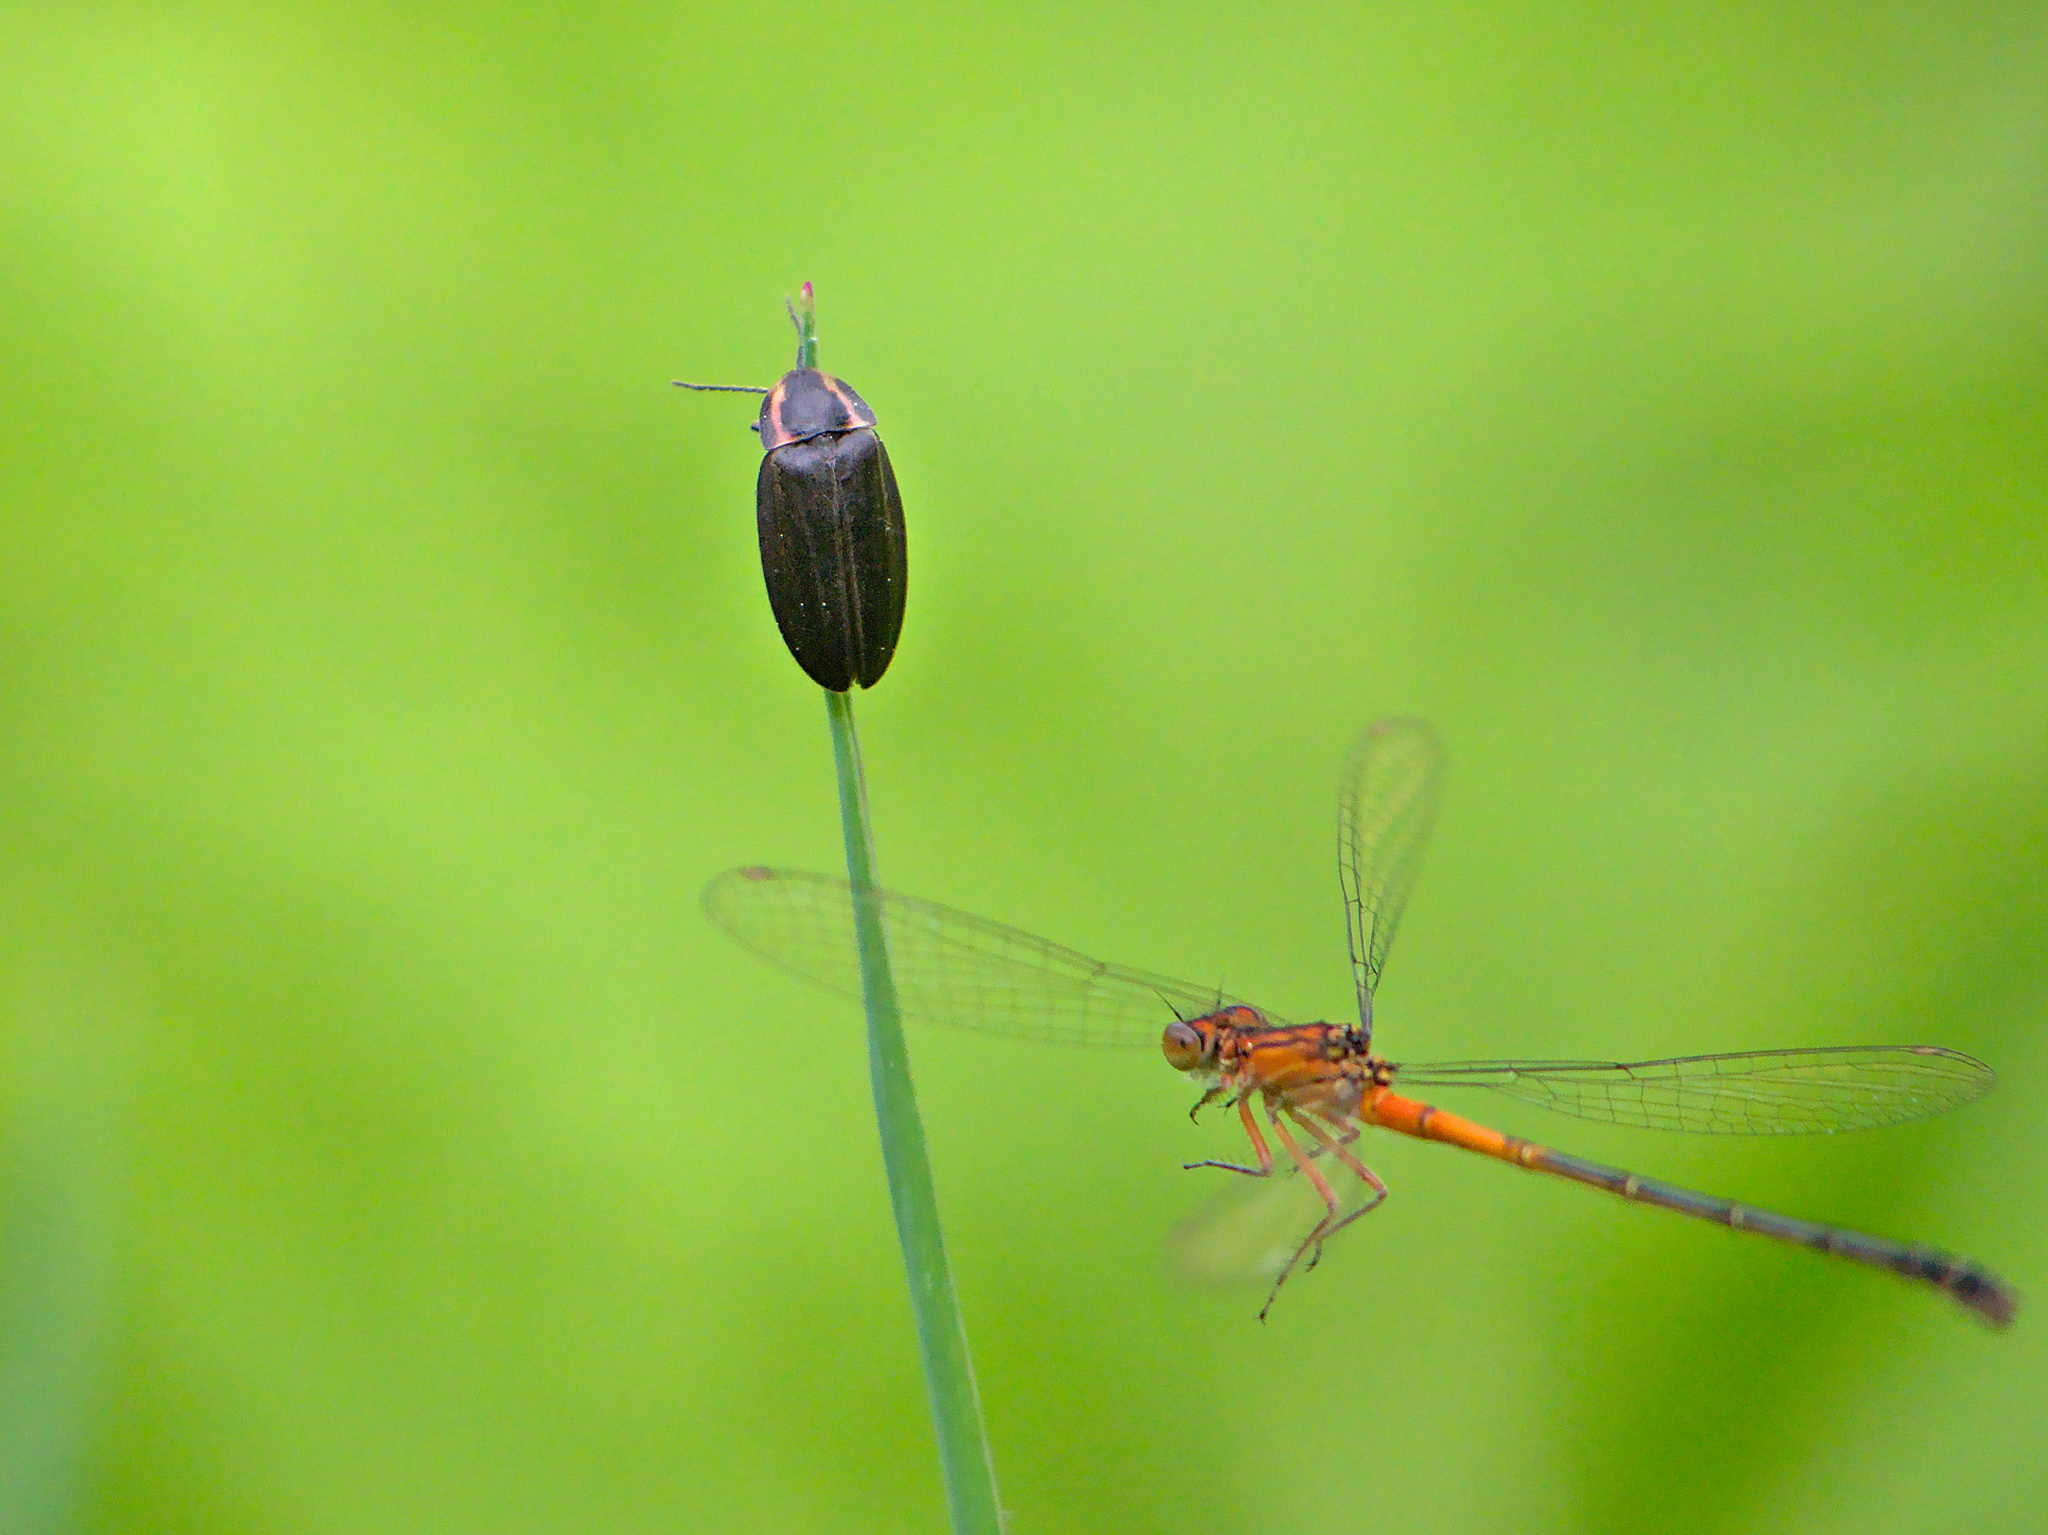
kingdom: Animalia
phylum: Arthropoda
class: Insecta
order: Odonata
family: Coenagrionidae
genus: Ischnura
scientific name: Ischnura verticalis
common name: Eastern forktail
